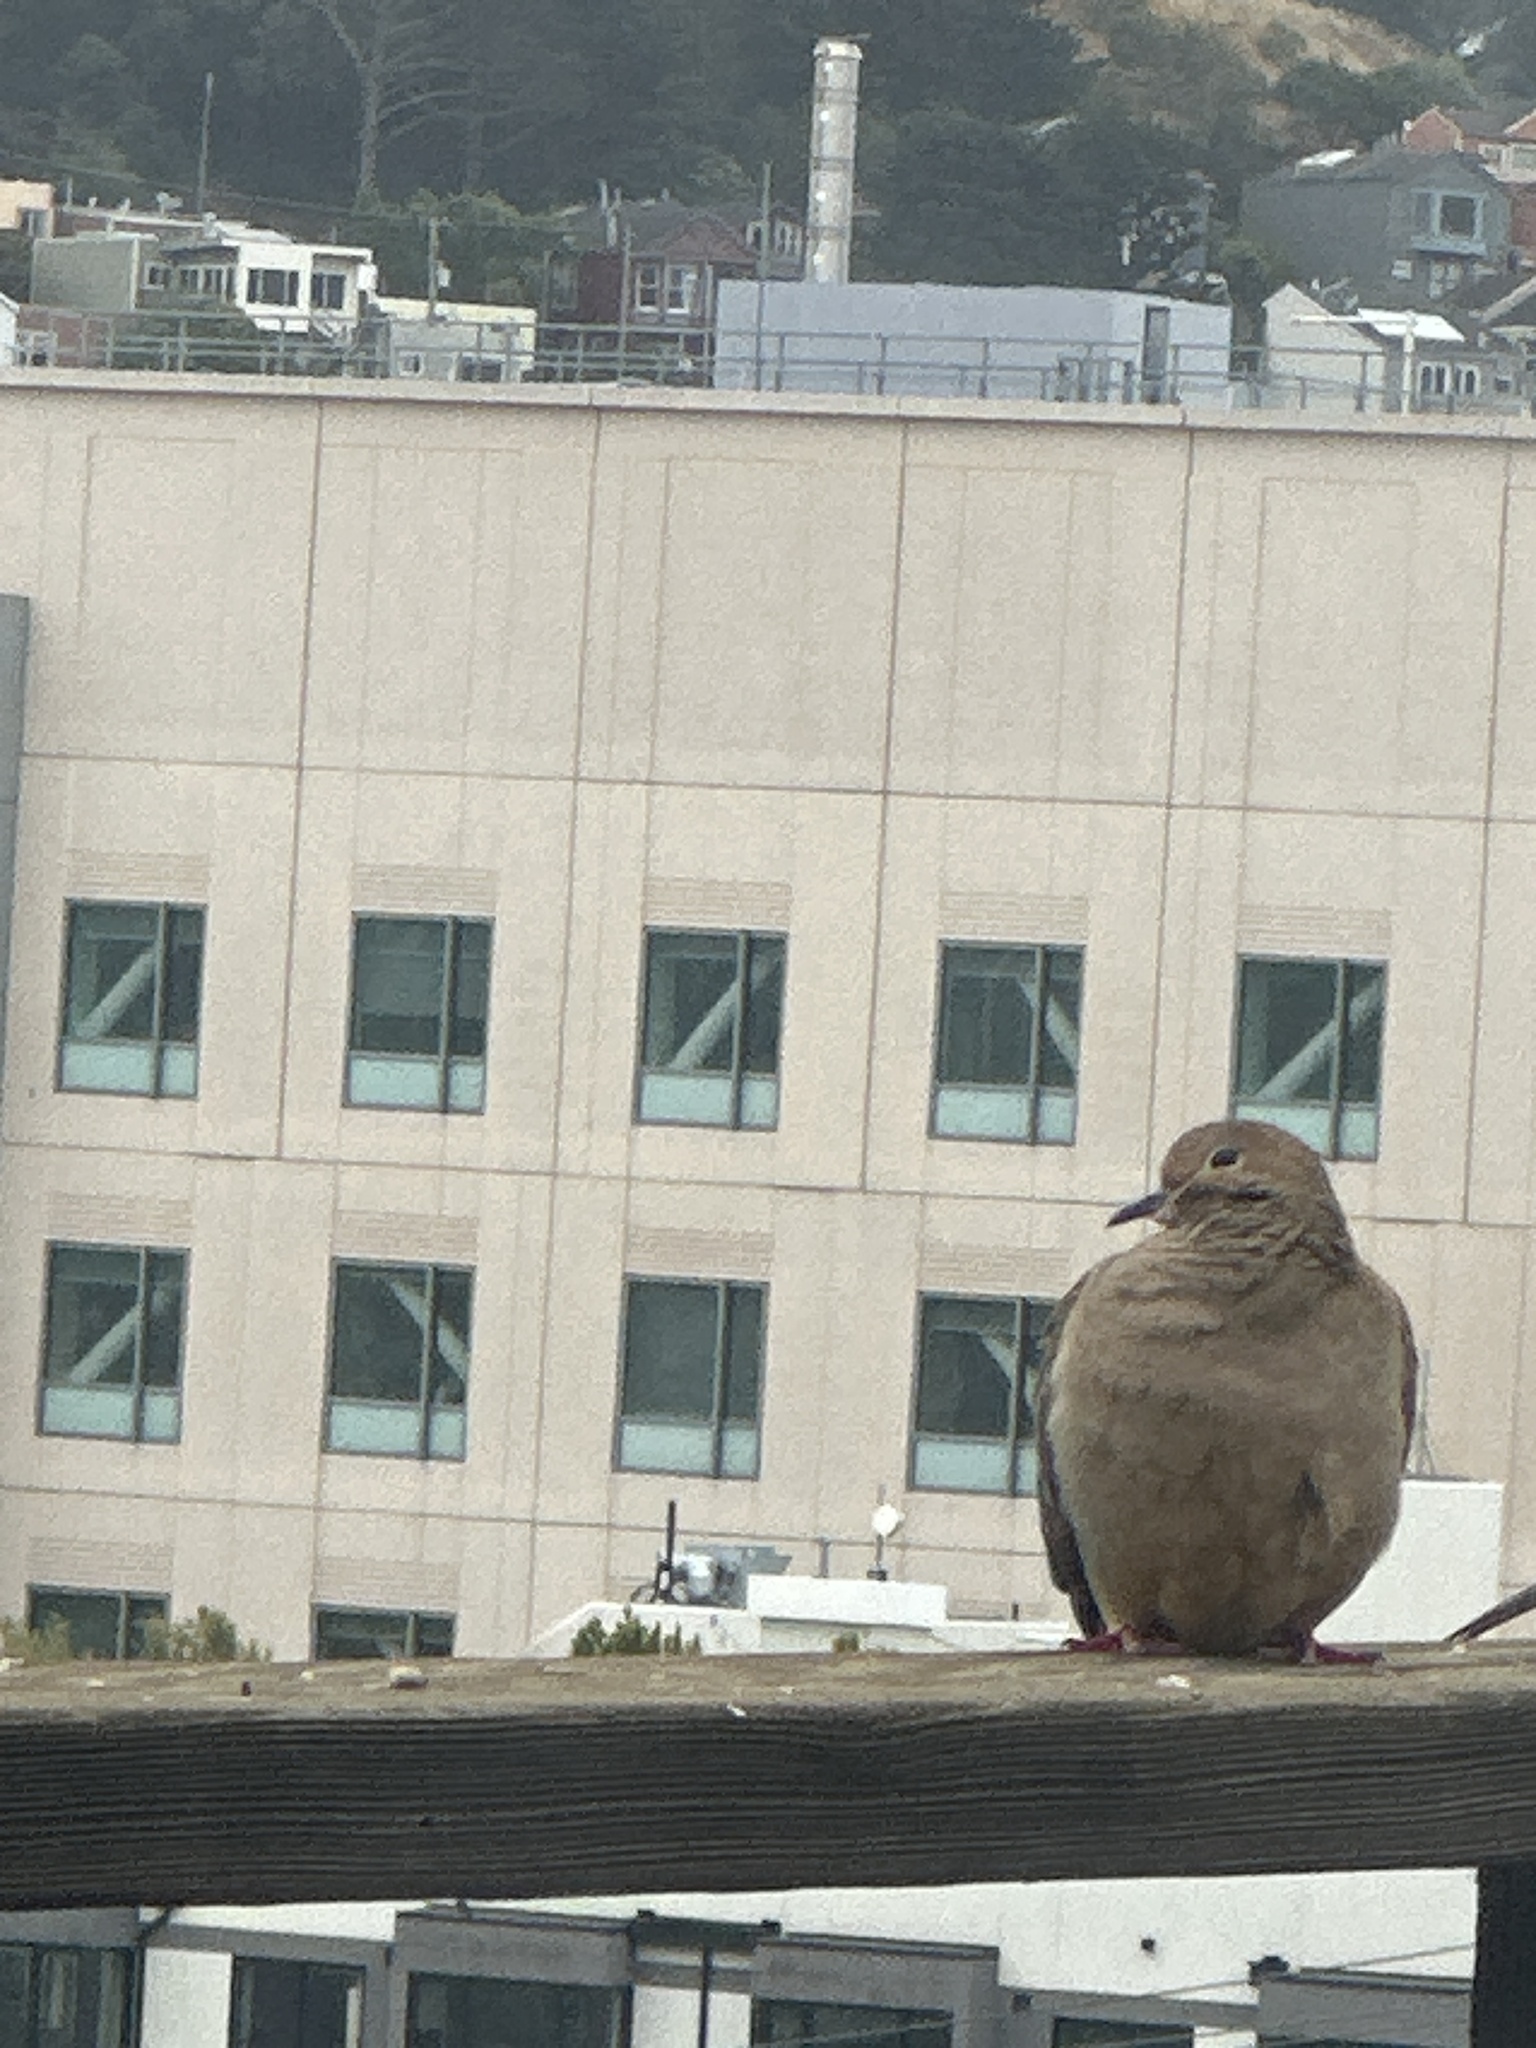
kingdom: Animalia
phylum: Chordata
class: Aves
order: Columbiformes
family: Columbidae
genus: Zenaida
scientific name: Zenaida macroura
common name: Mourning dove
